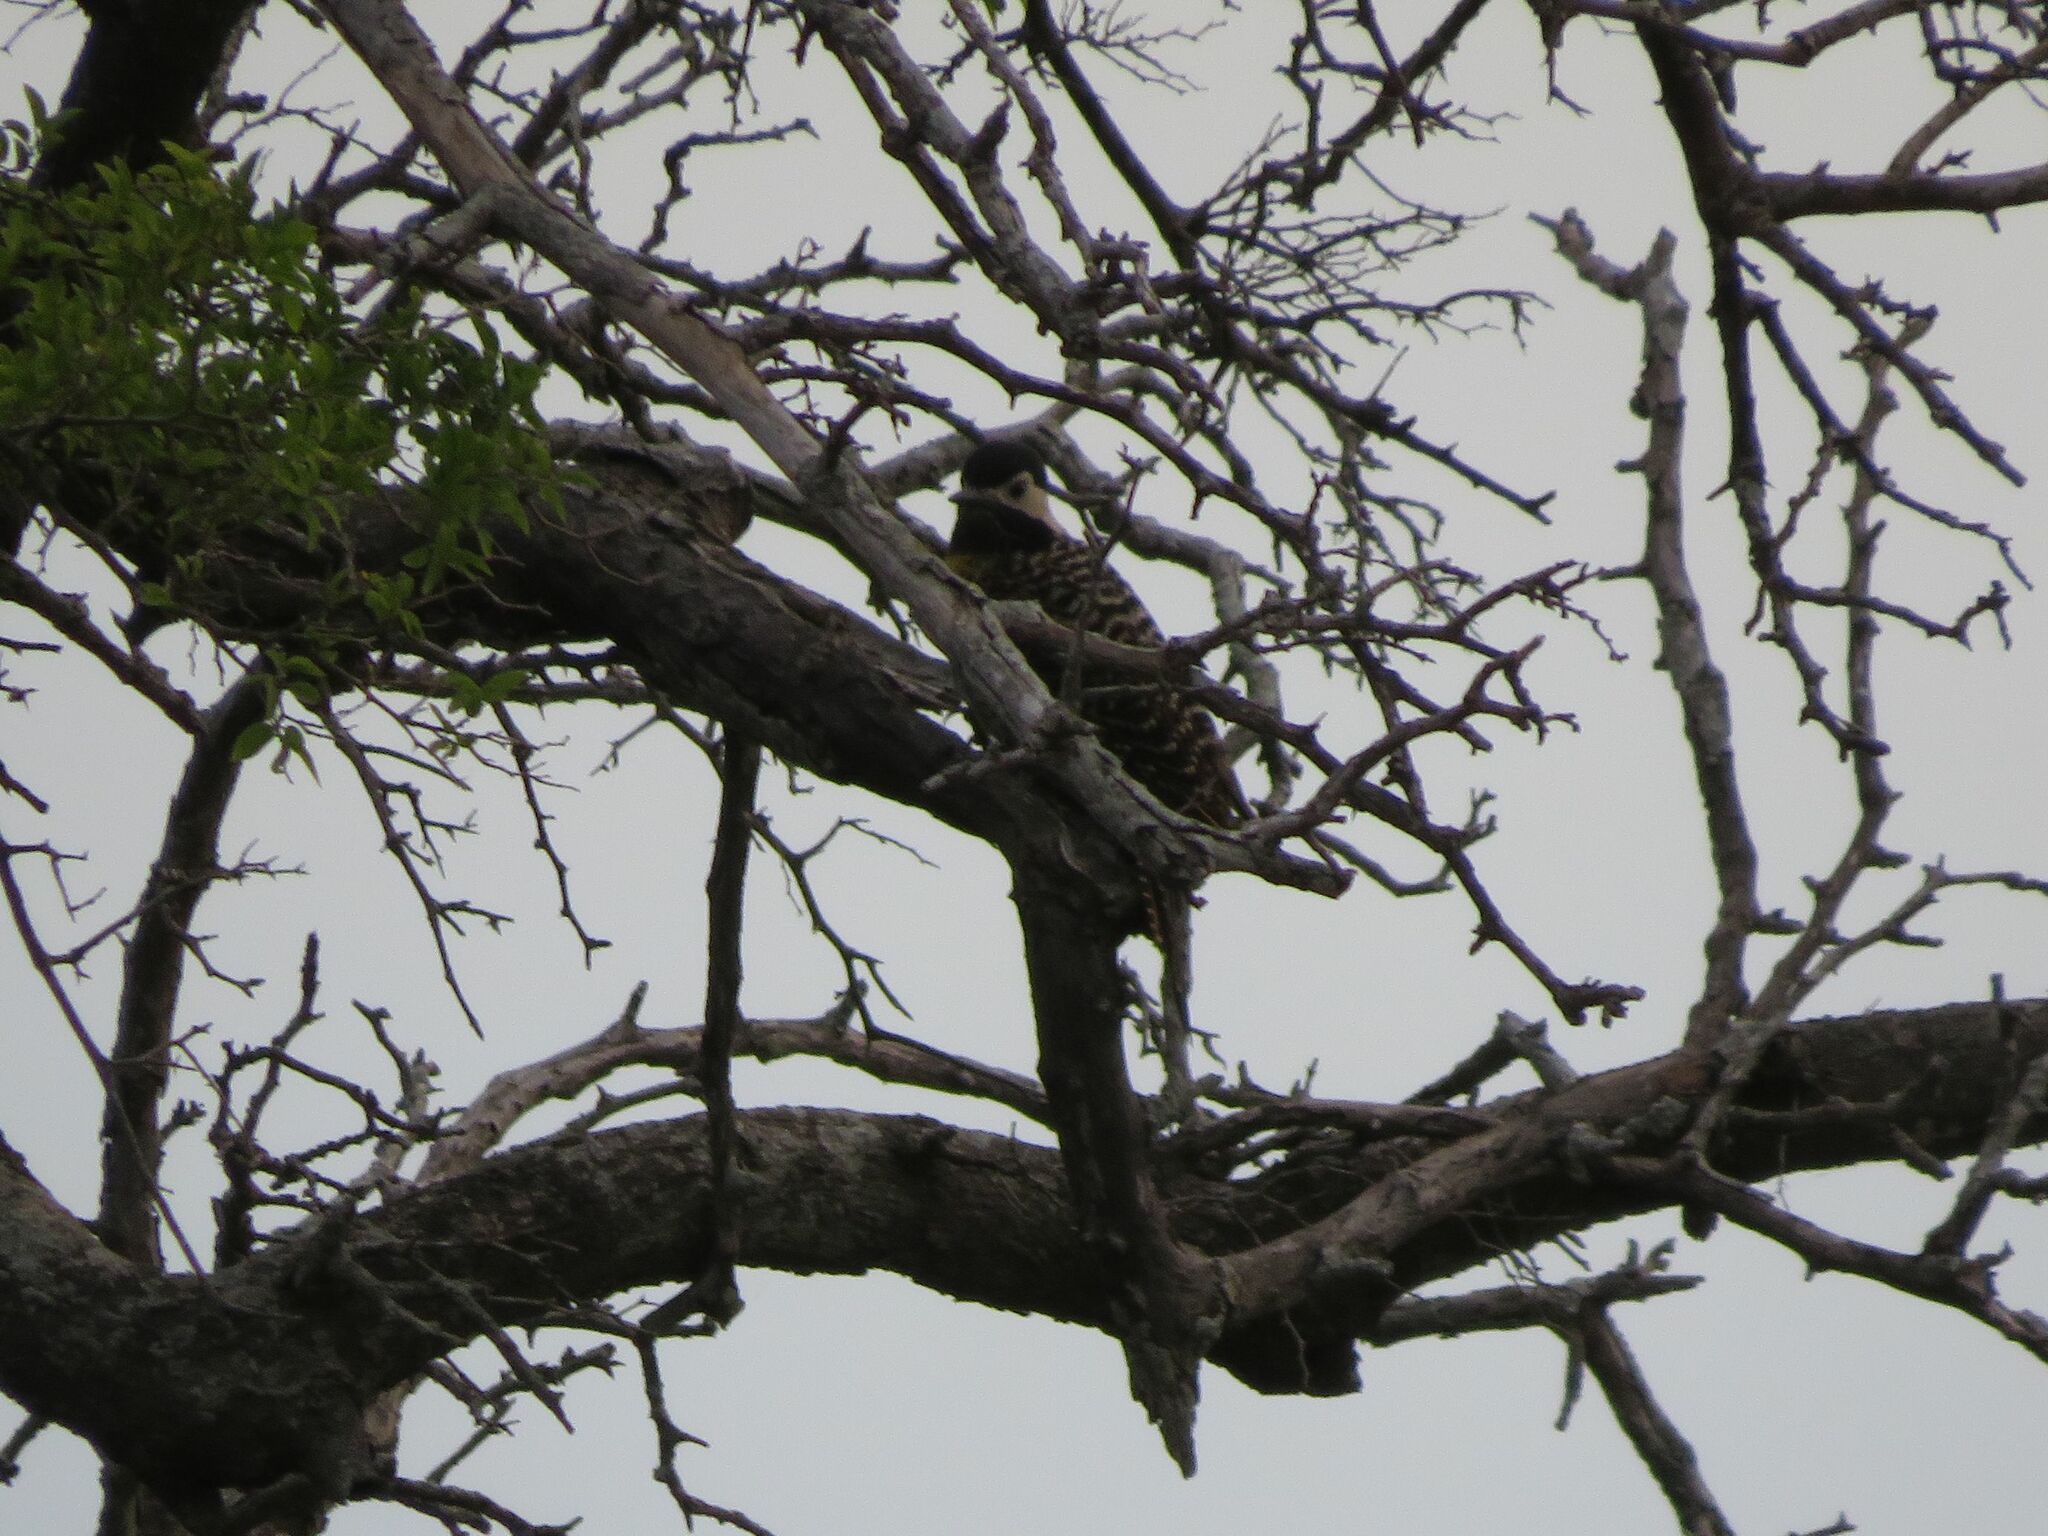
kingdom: Animalia
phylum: Chordata
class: Aves
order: Piciformes
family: Picidae
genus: Colaptes
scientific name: Colaptes melanochloros
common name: Green-barred woodpecker
